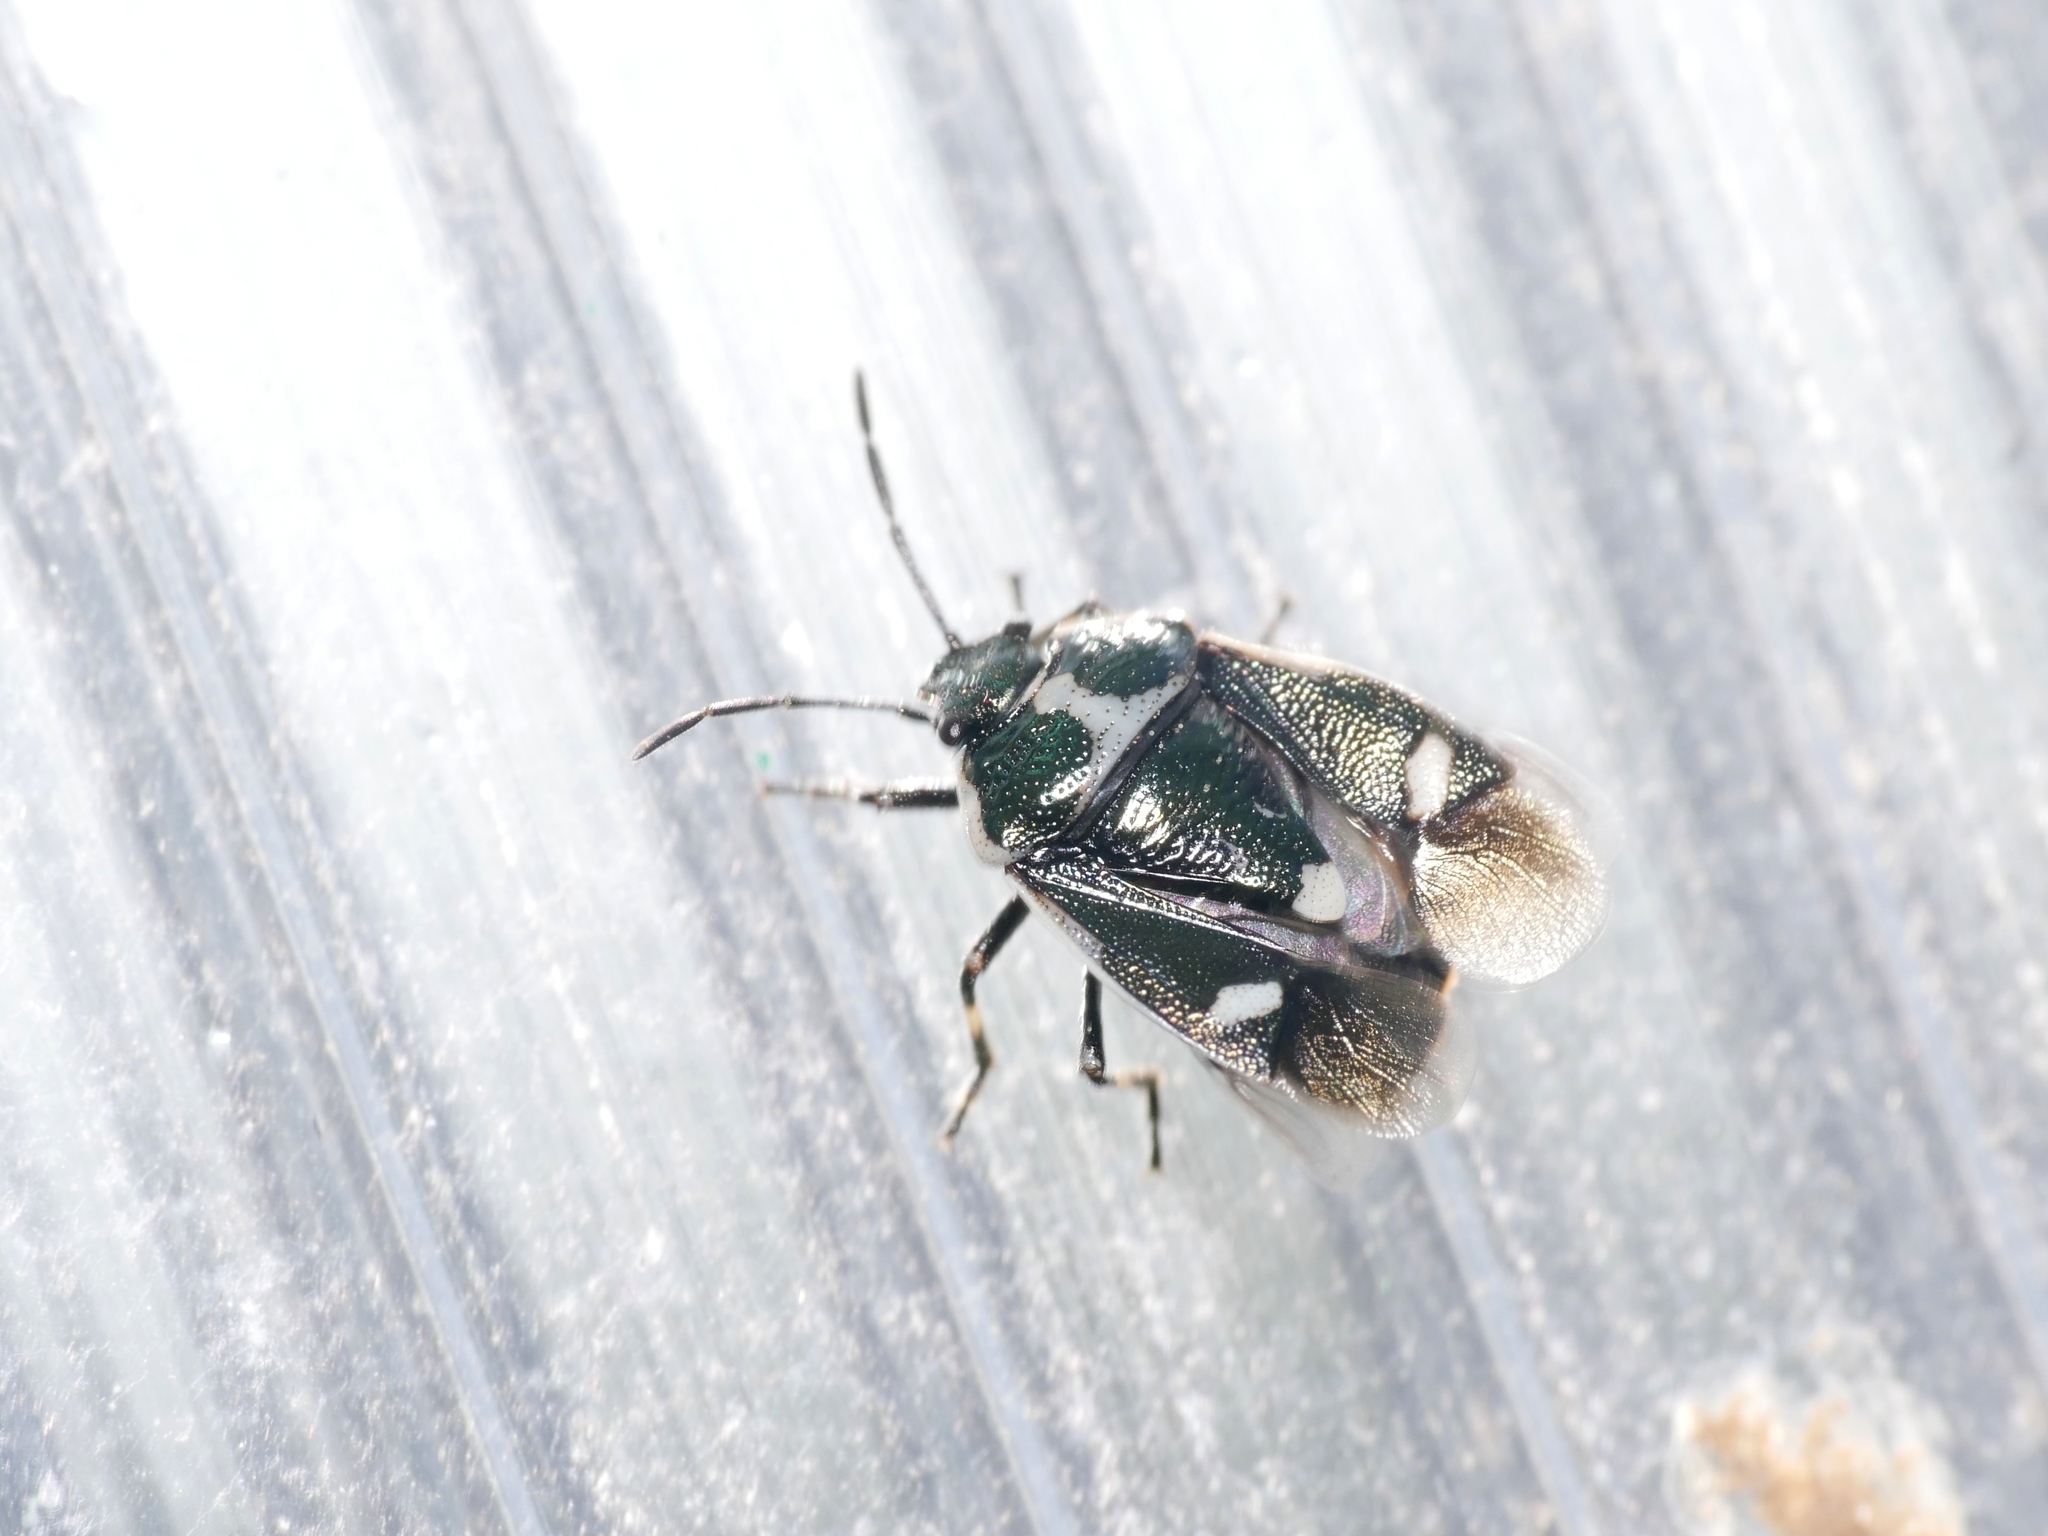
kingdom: Animalia
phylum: Arthropoda
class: Insecta
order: Hemiptera
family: Pentatomidae
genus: Eurydema
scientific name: Eurydema oleracea
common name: Cabbage bug
